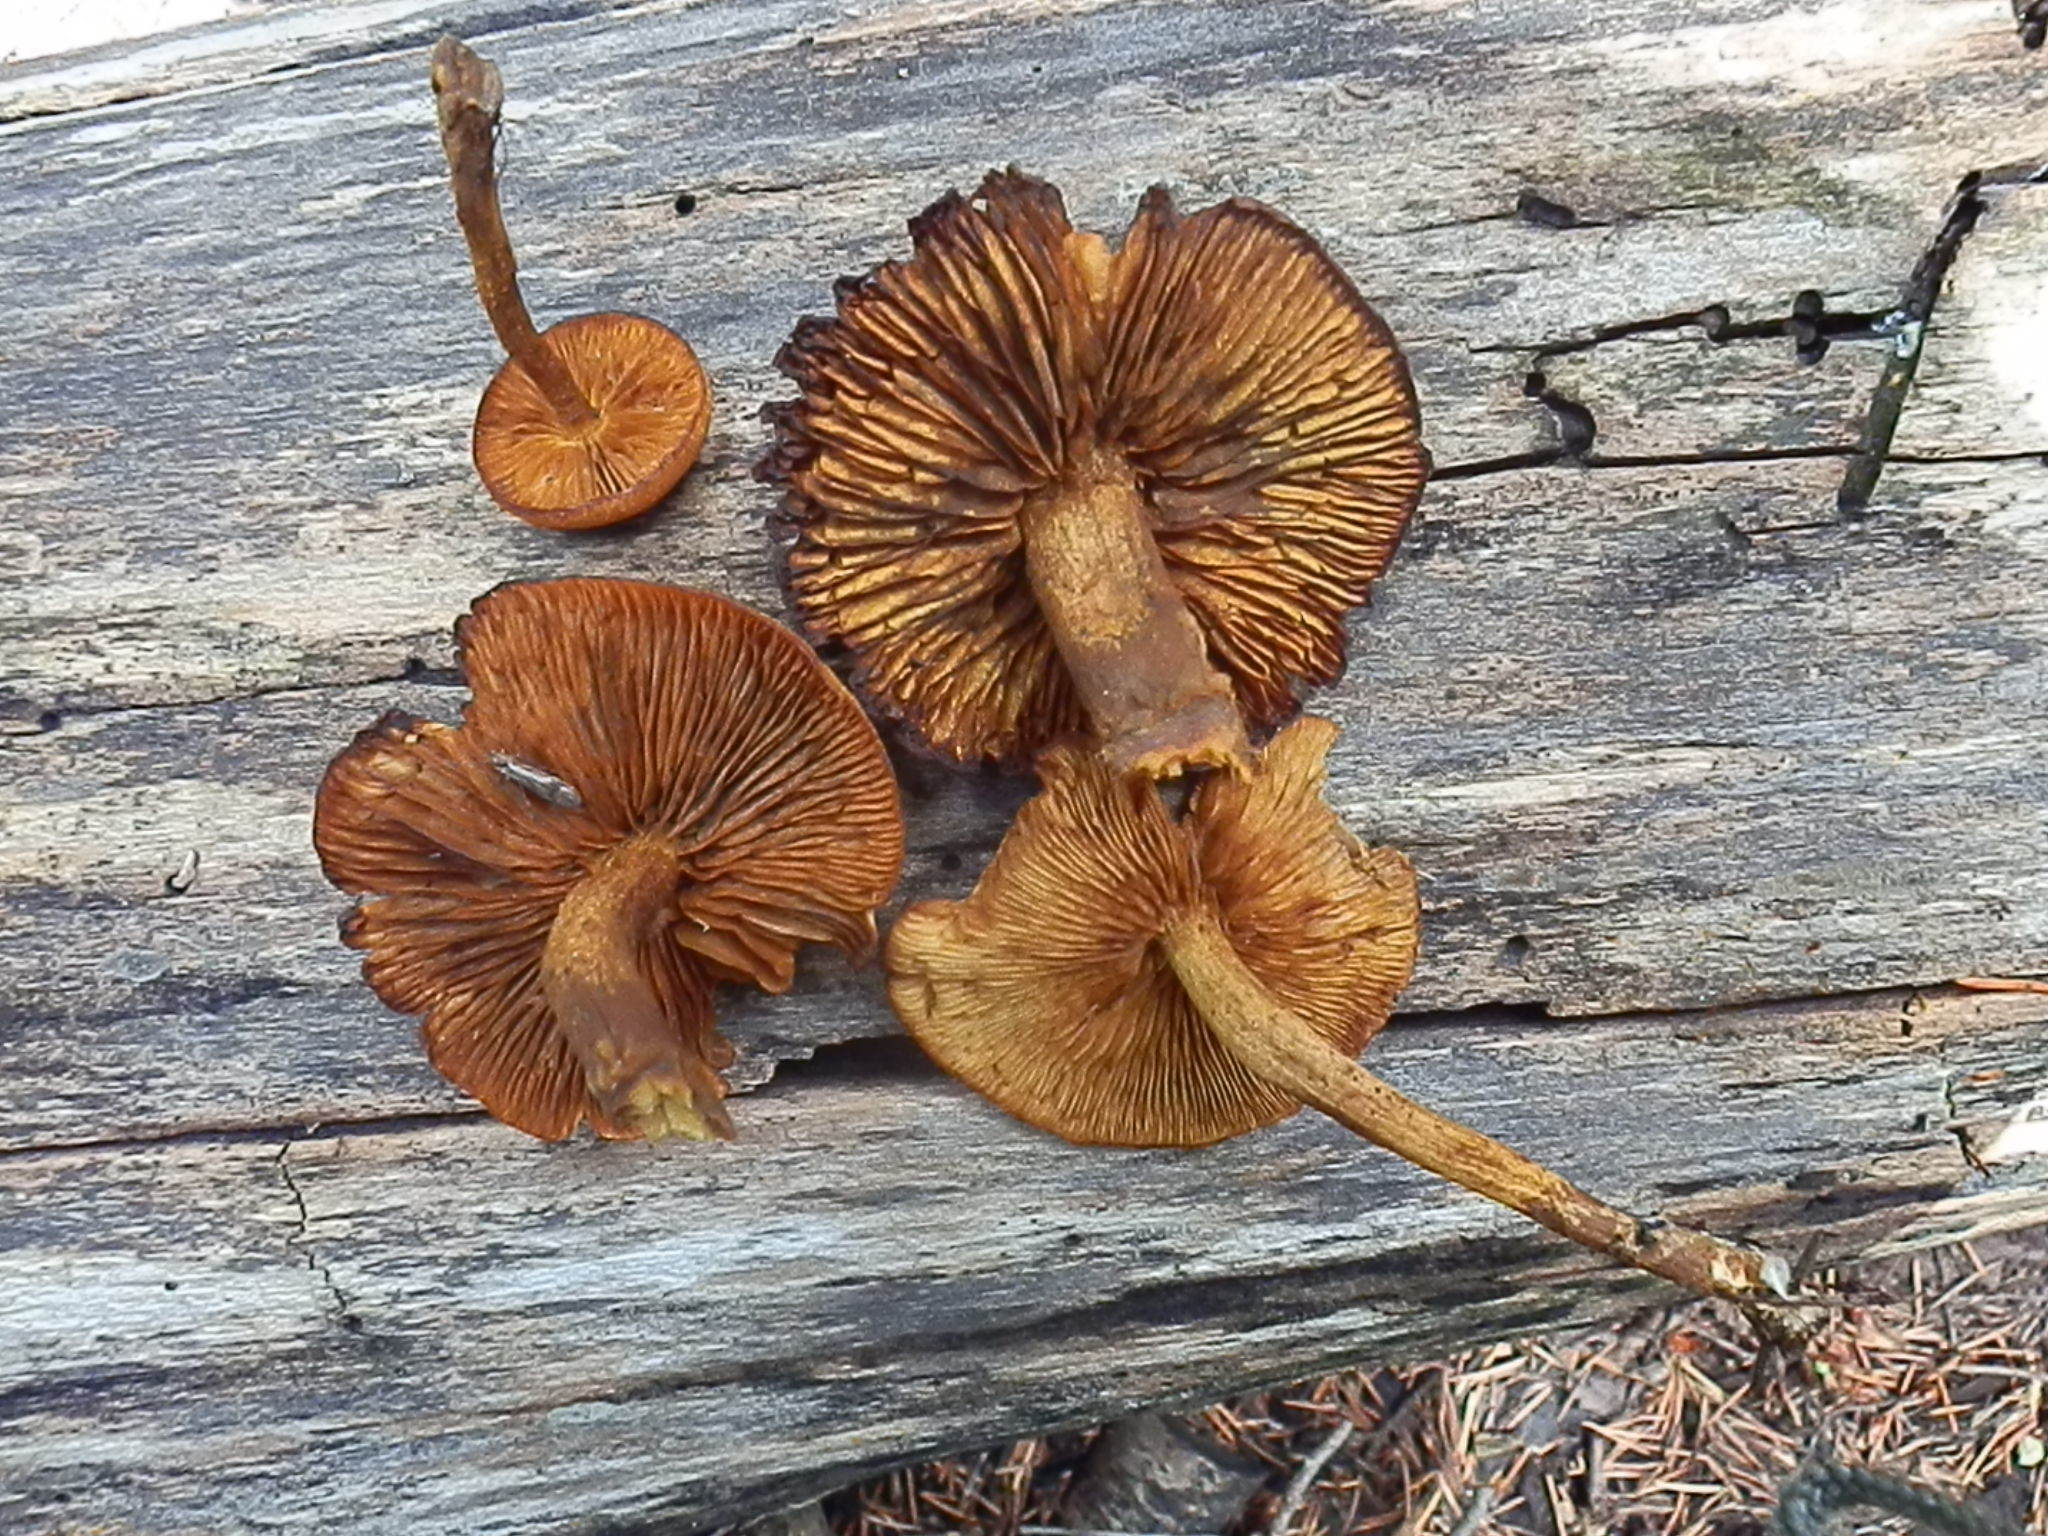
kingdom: Fungi
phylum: Basidiomycota
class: Agaricomycetes
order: Agaricales
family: Tubariaceae
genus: Phaeomarasmius
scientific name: Phaeomarasmius proximans
